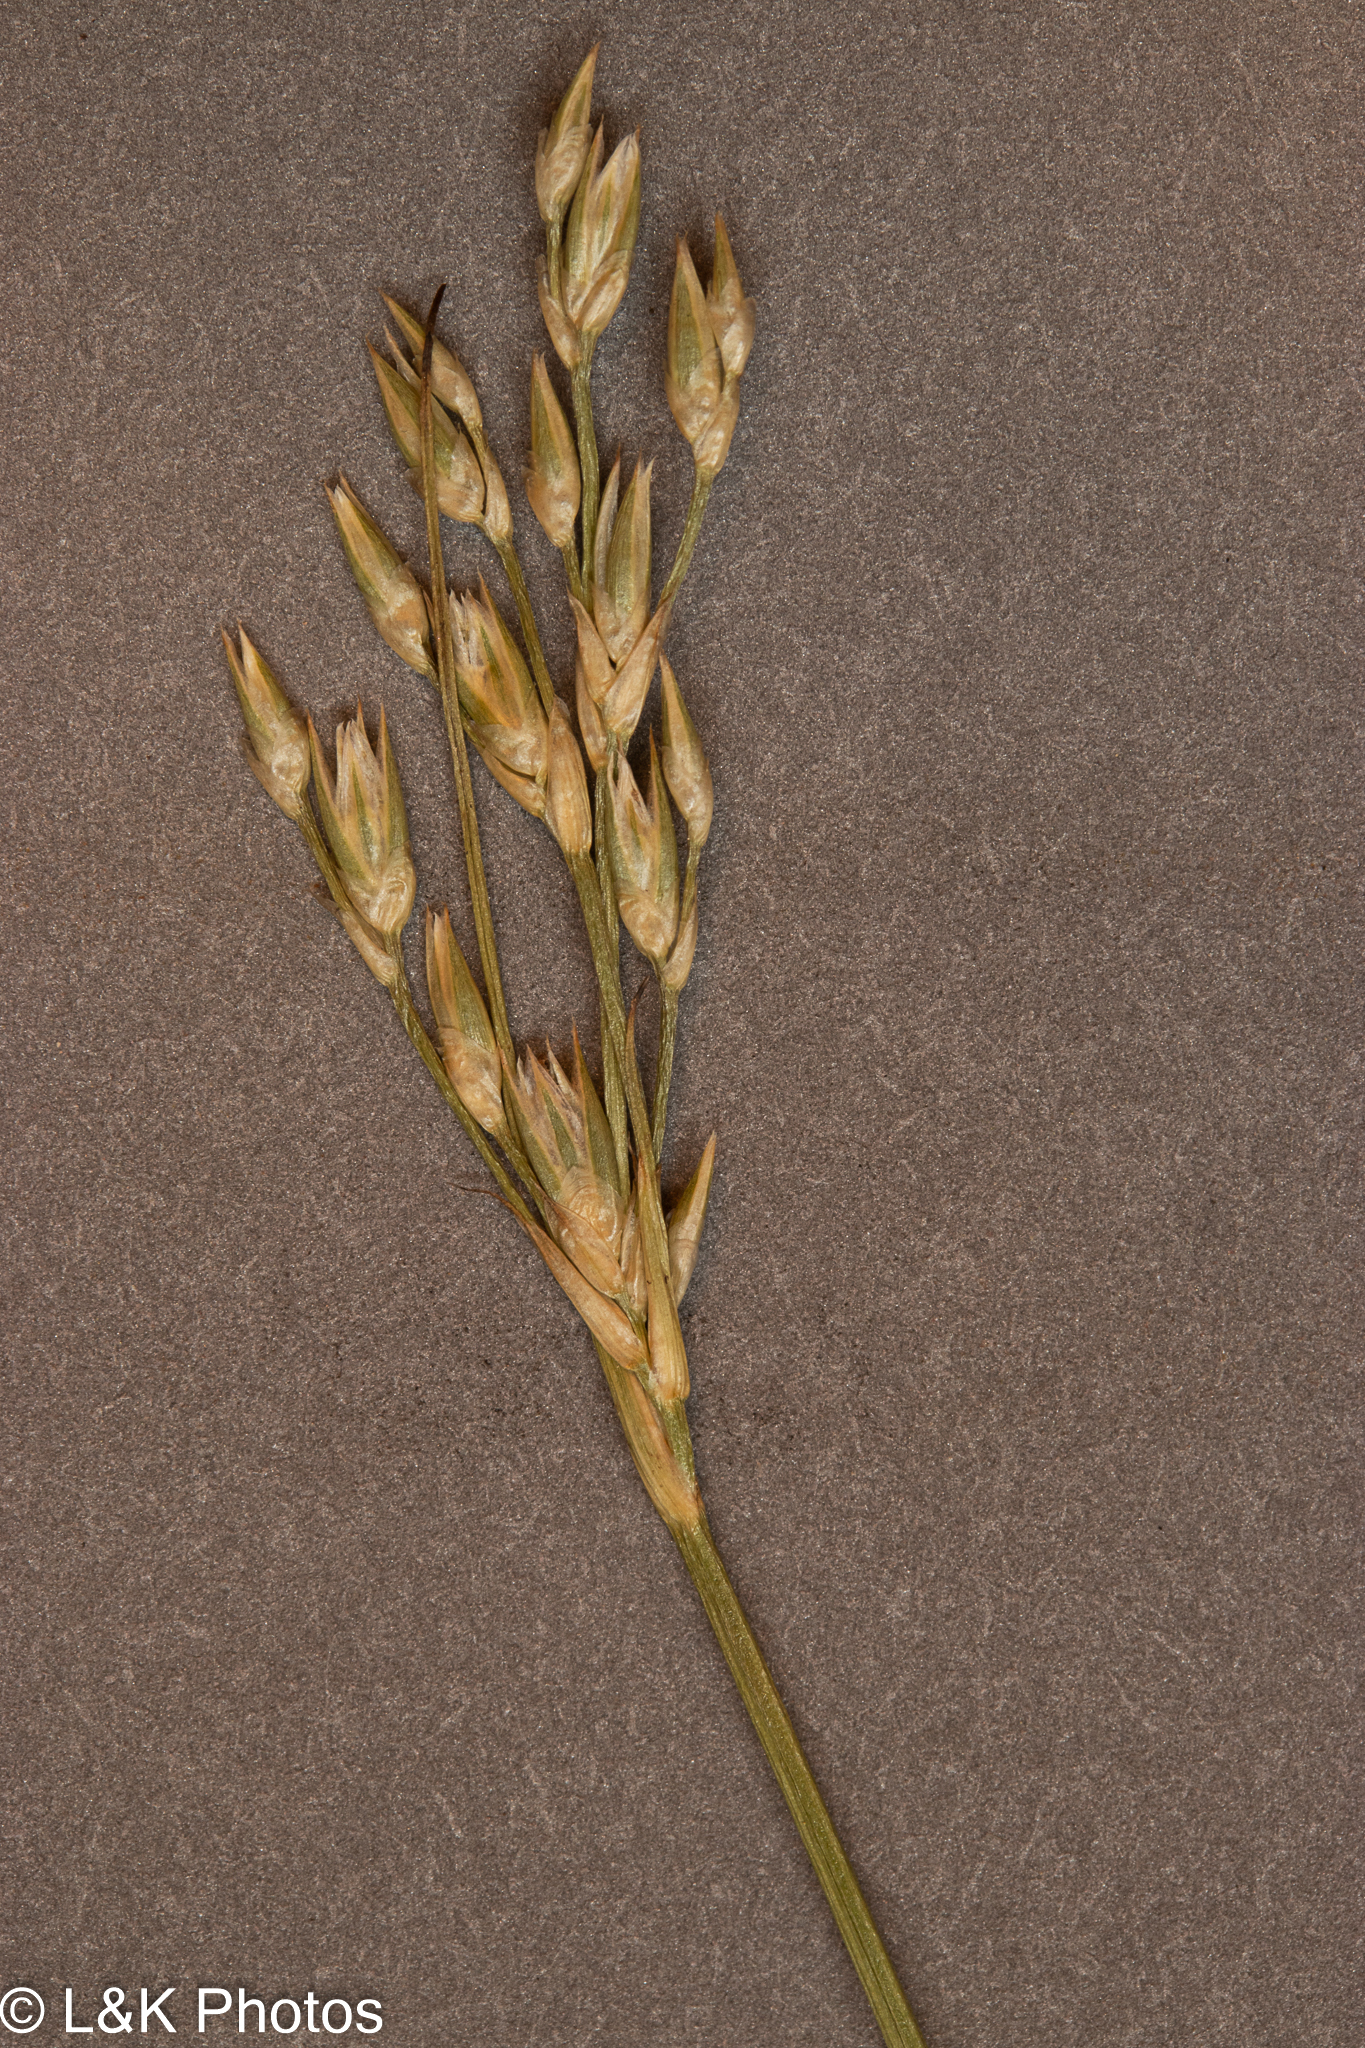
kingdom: Plantae
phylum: Tracheophyta
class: Liliopsida
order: Poales
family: Juncaceae
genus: Juncus
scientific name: Juncus vaseyi
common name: Big-headed rush
